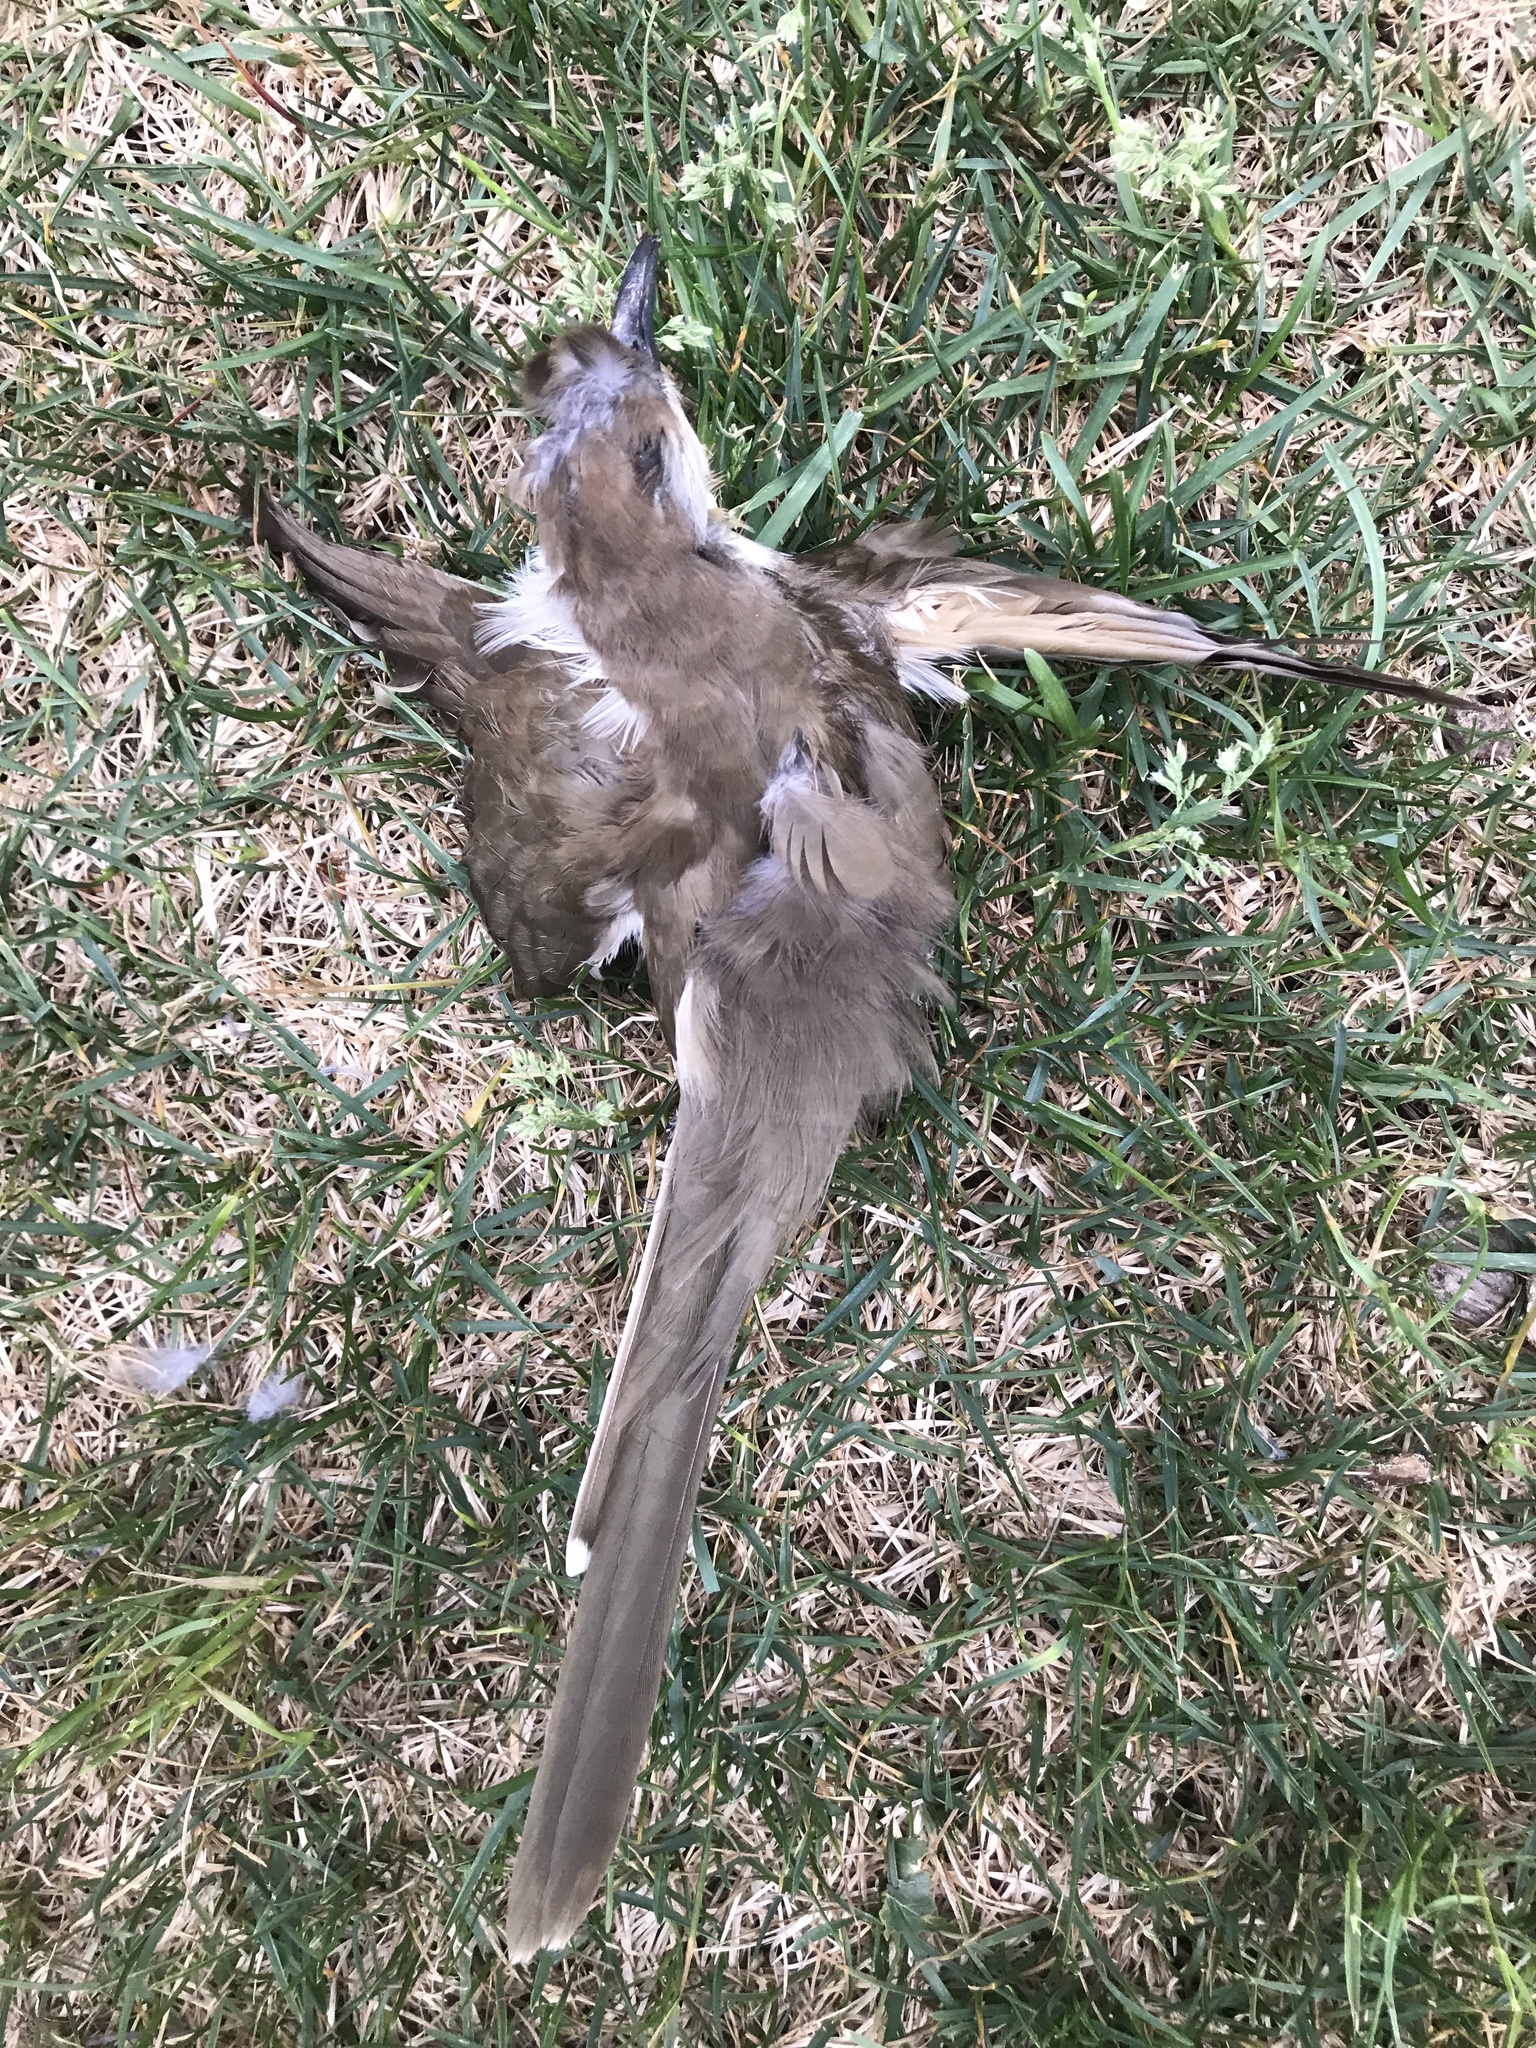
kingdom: Animalia
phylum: Chordata
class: Aves
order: Cuculiformes
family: Cuculidae
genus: Coccyzus
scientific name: Coccyzus erythropthalmus
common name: Black-billed cuckoo
